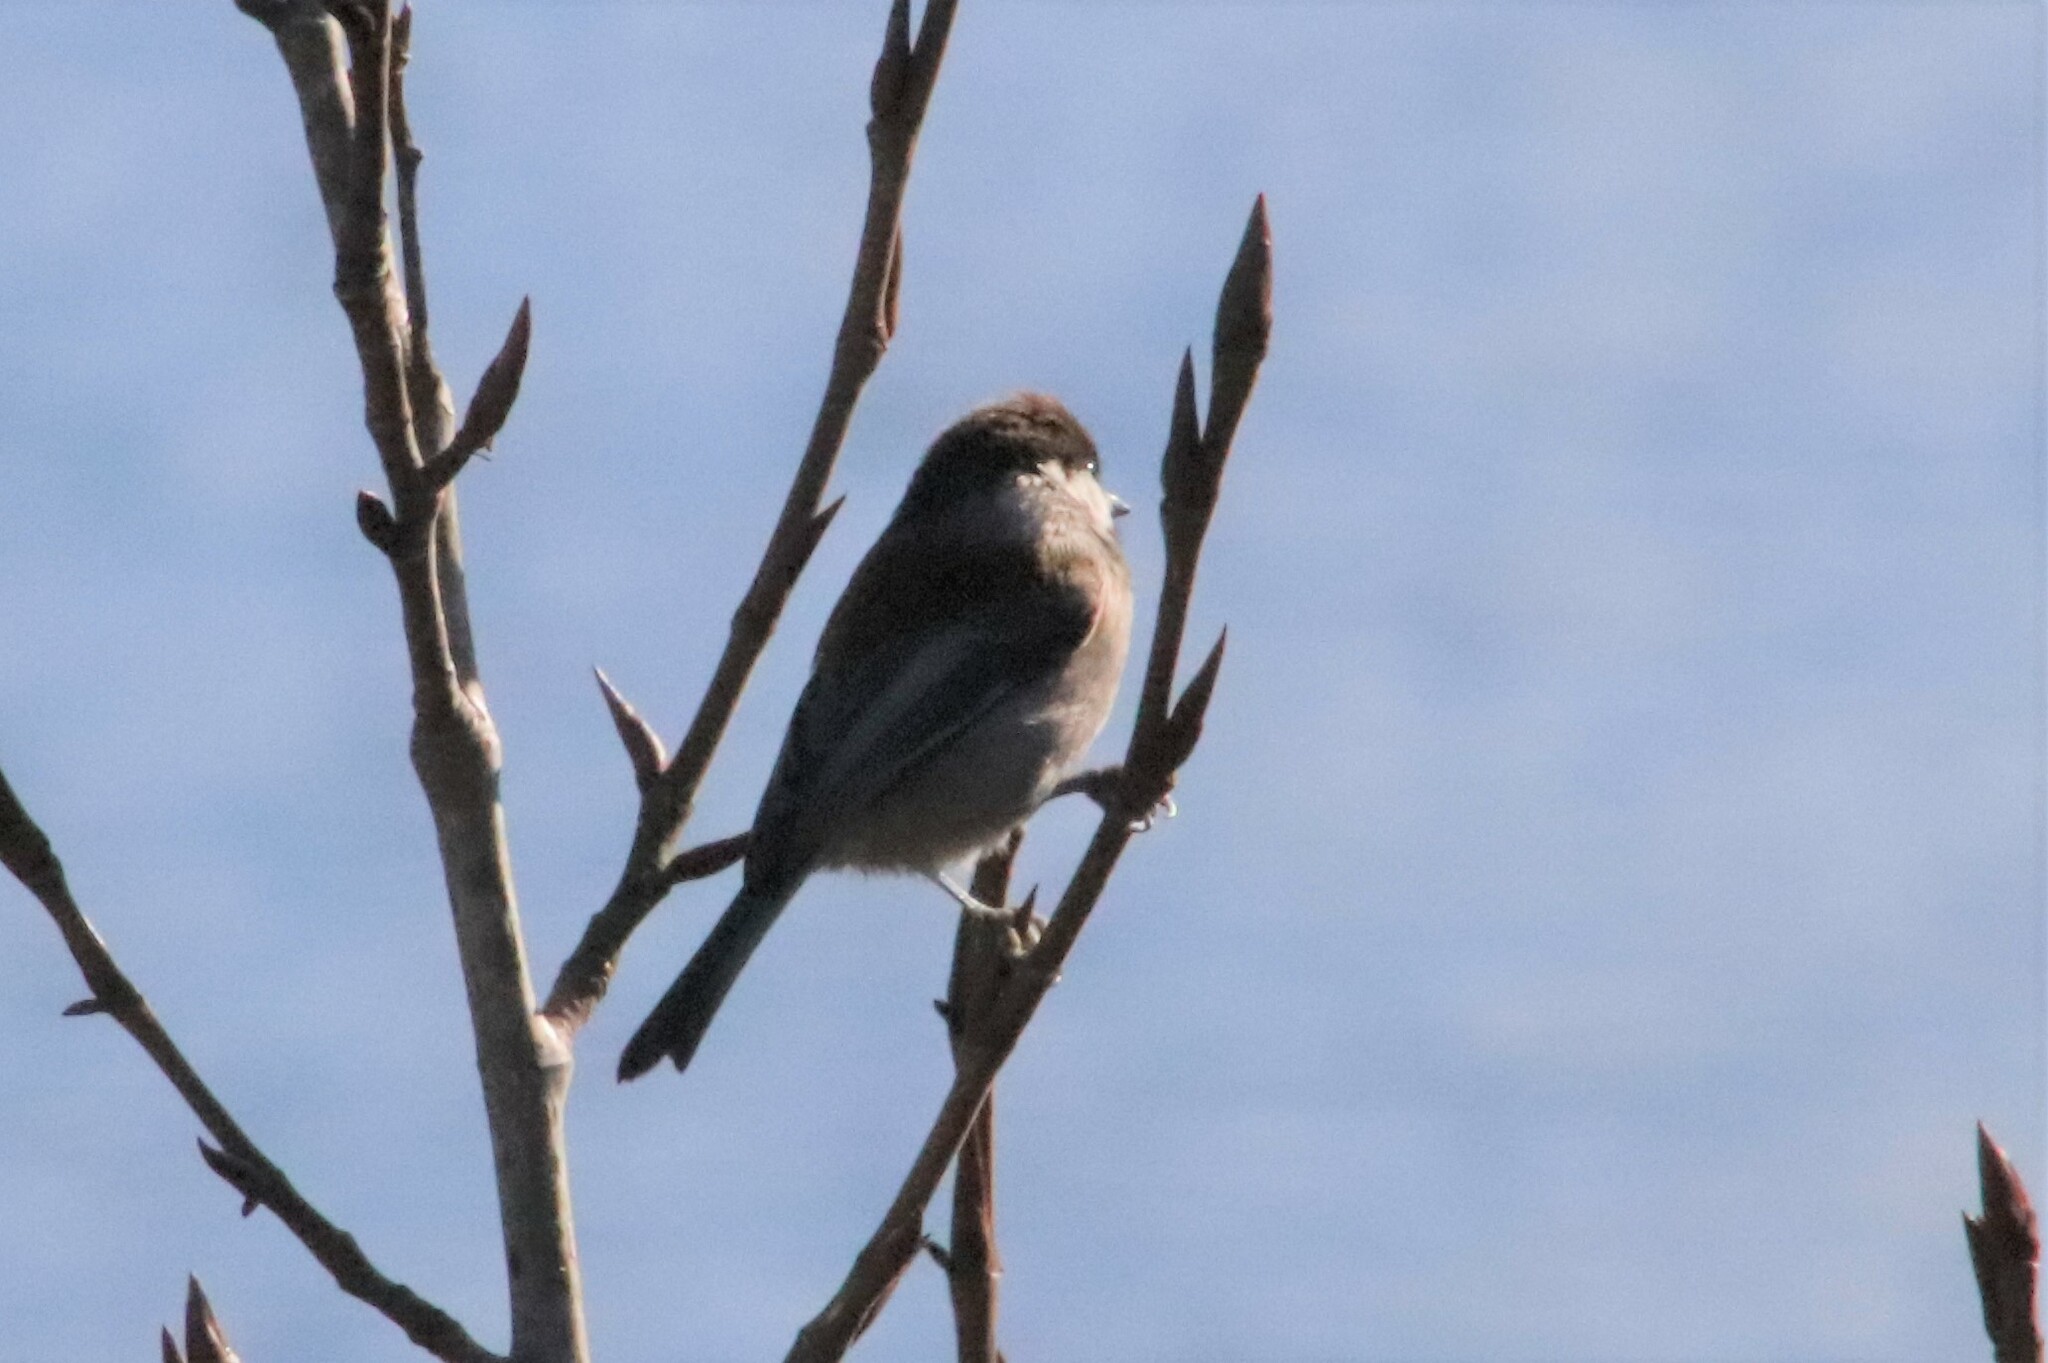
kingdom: Animalia
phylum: Chordata
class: Aves
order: Passeriformes
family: Paridae
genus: Poecile
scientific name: Poecile rufescens
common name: Chestnut-backed chickadee
